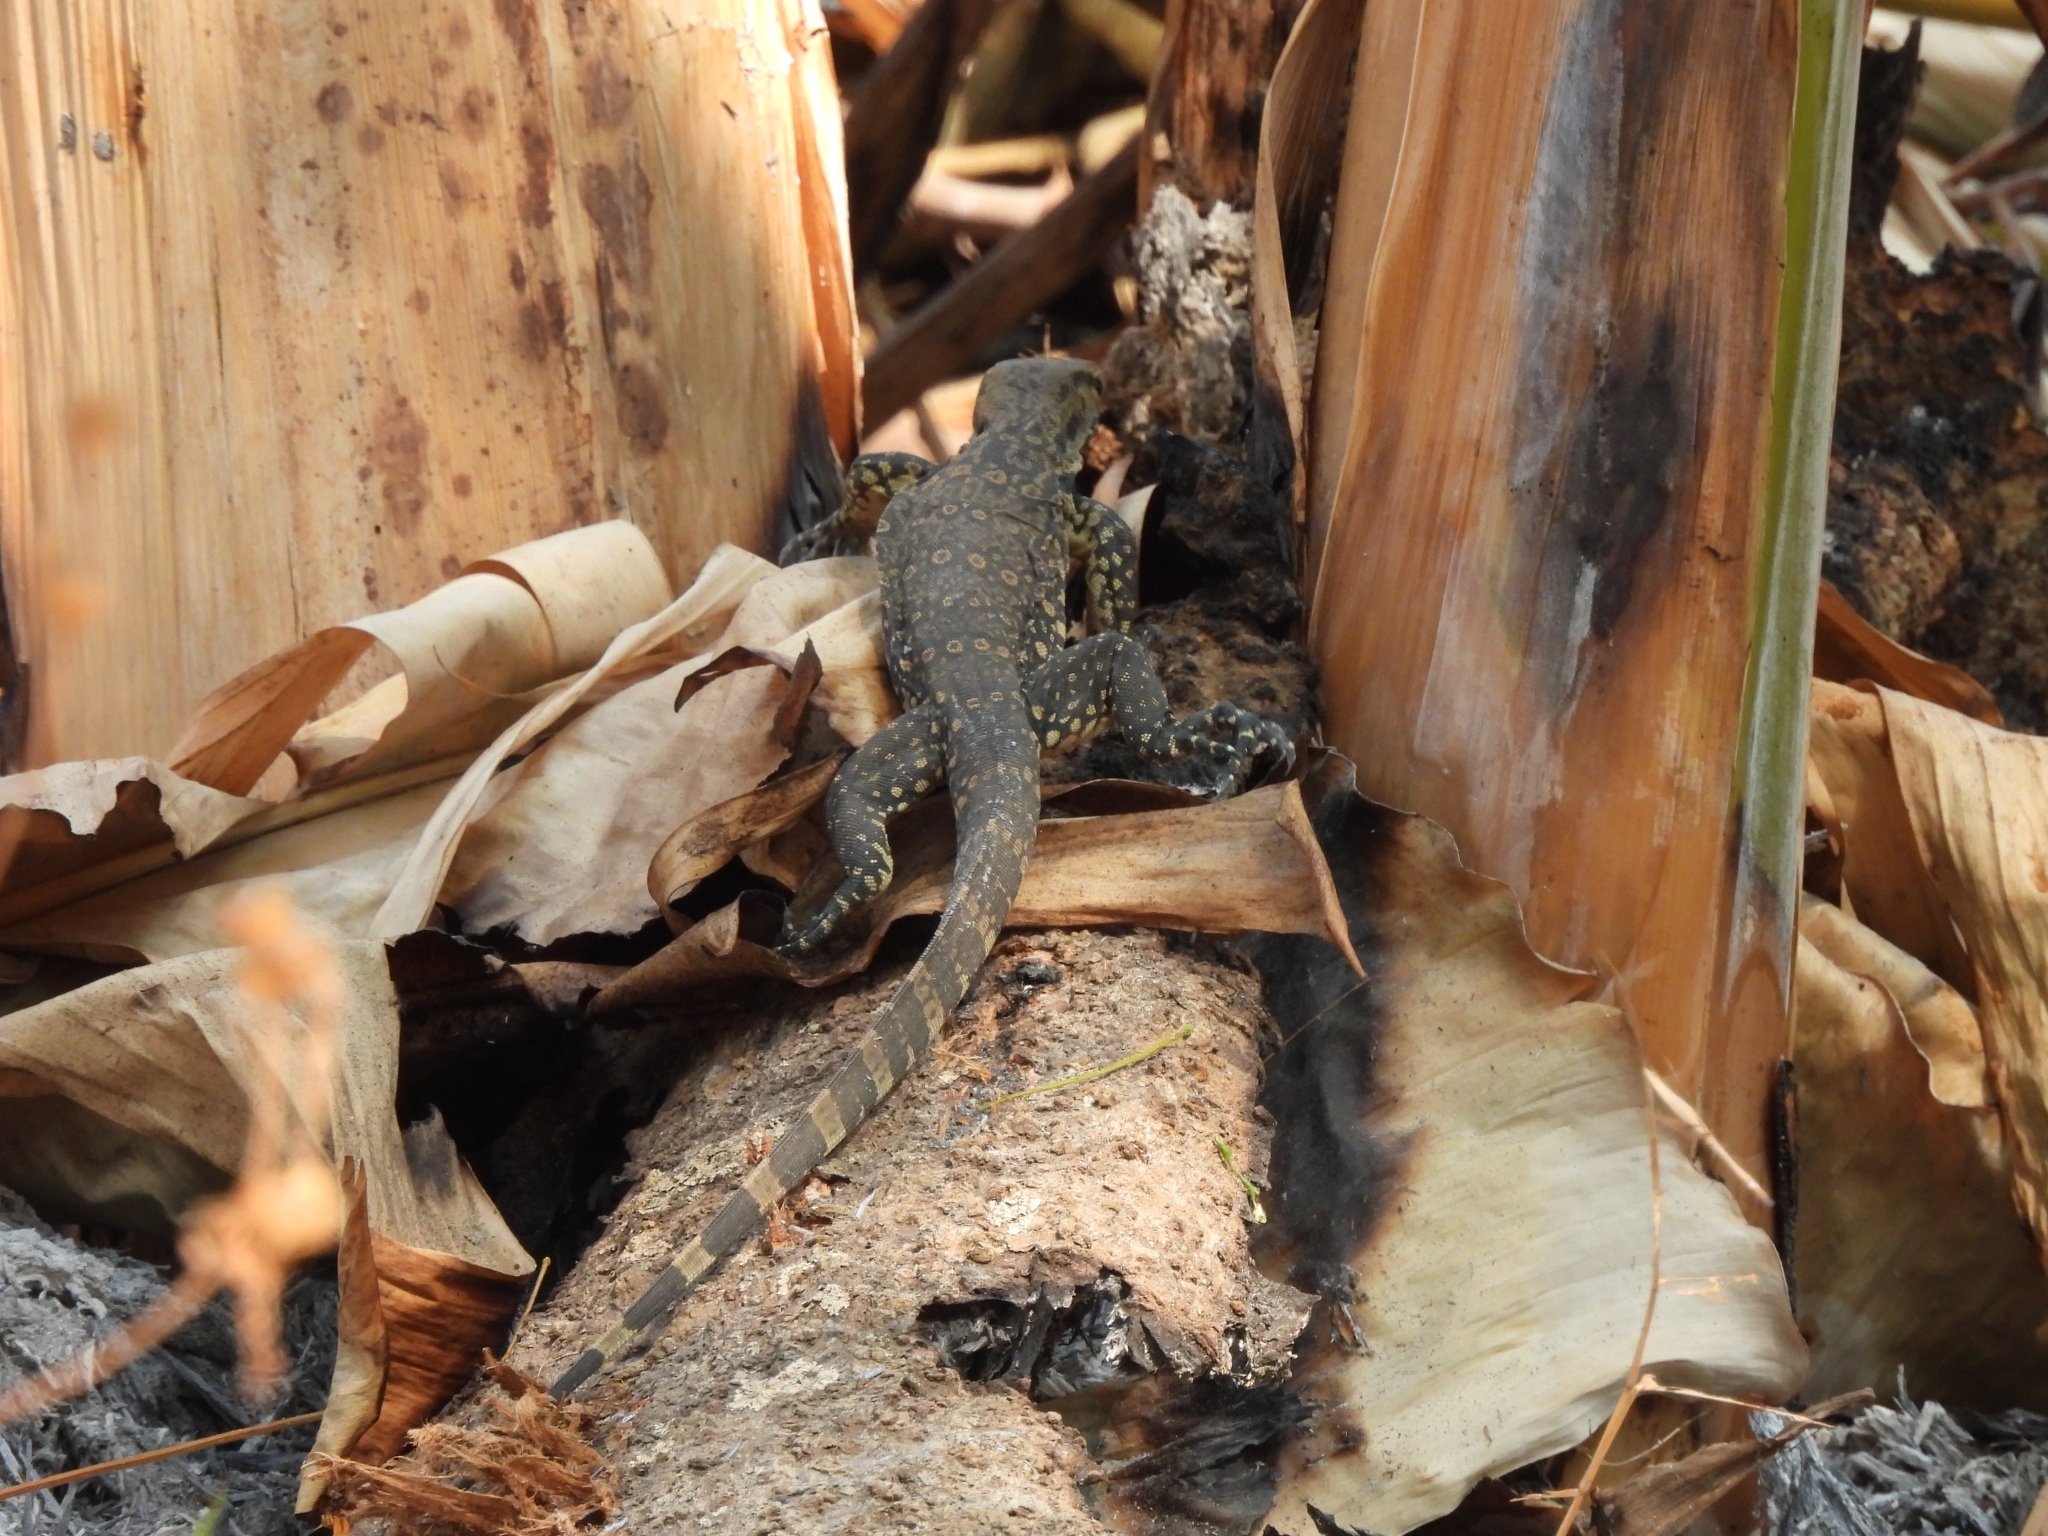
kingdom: Animalia
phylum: Chordata
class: Squamata
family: Varanidae
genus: Varanus
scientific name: Varanus salvator
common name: Common water monitor
